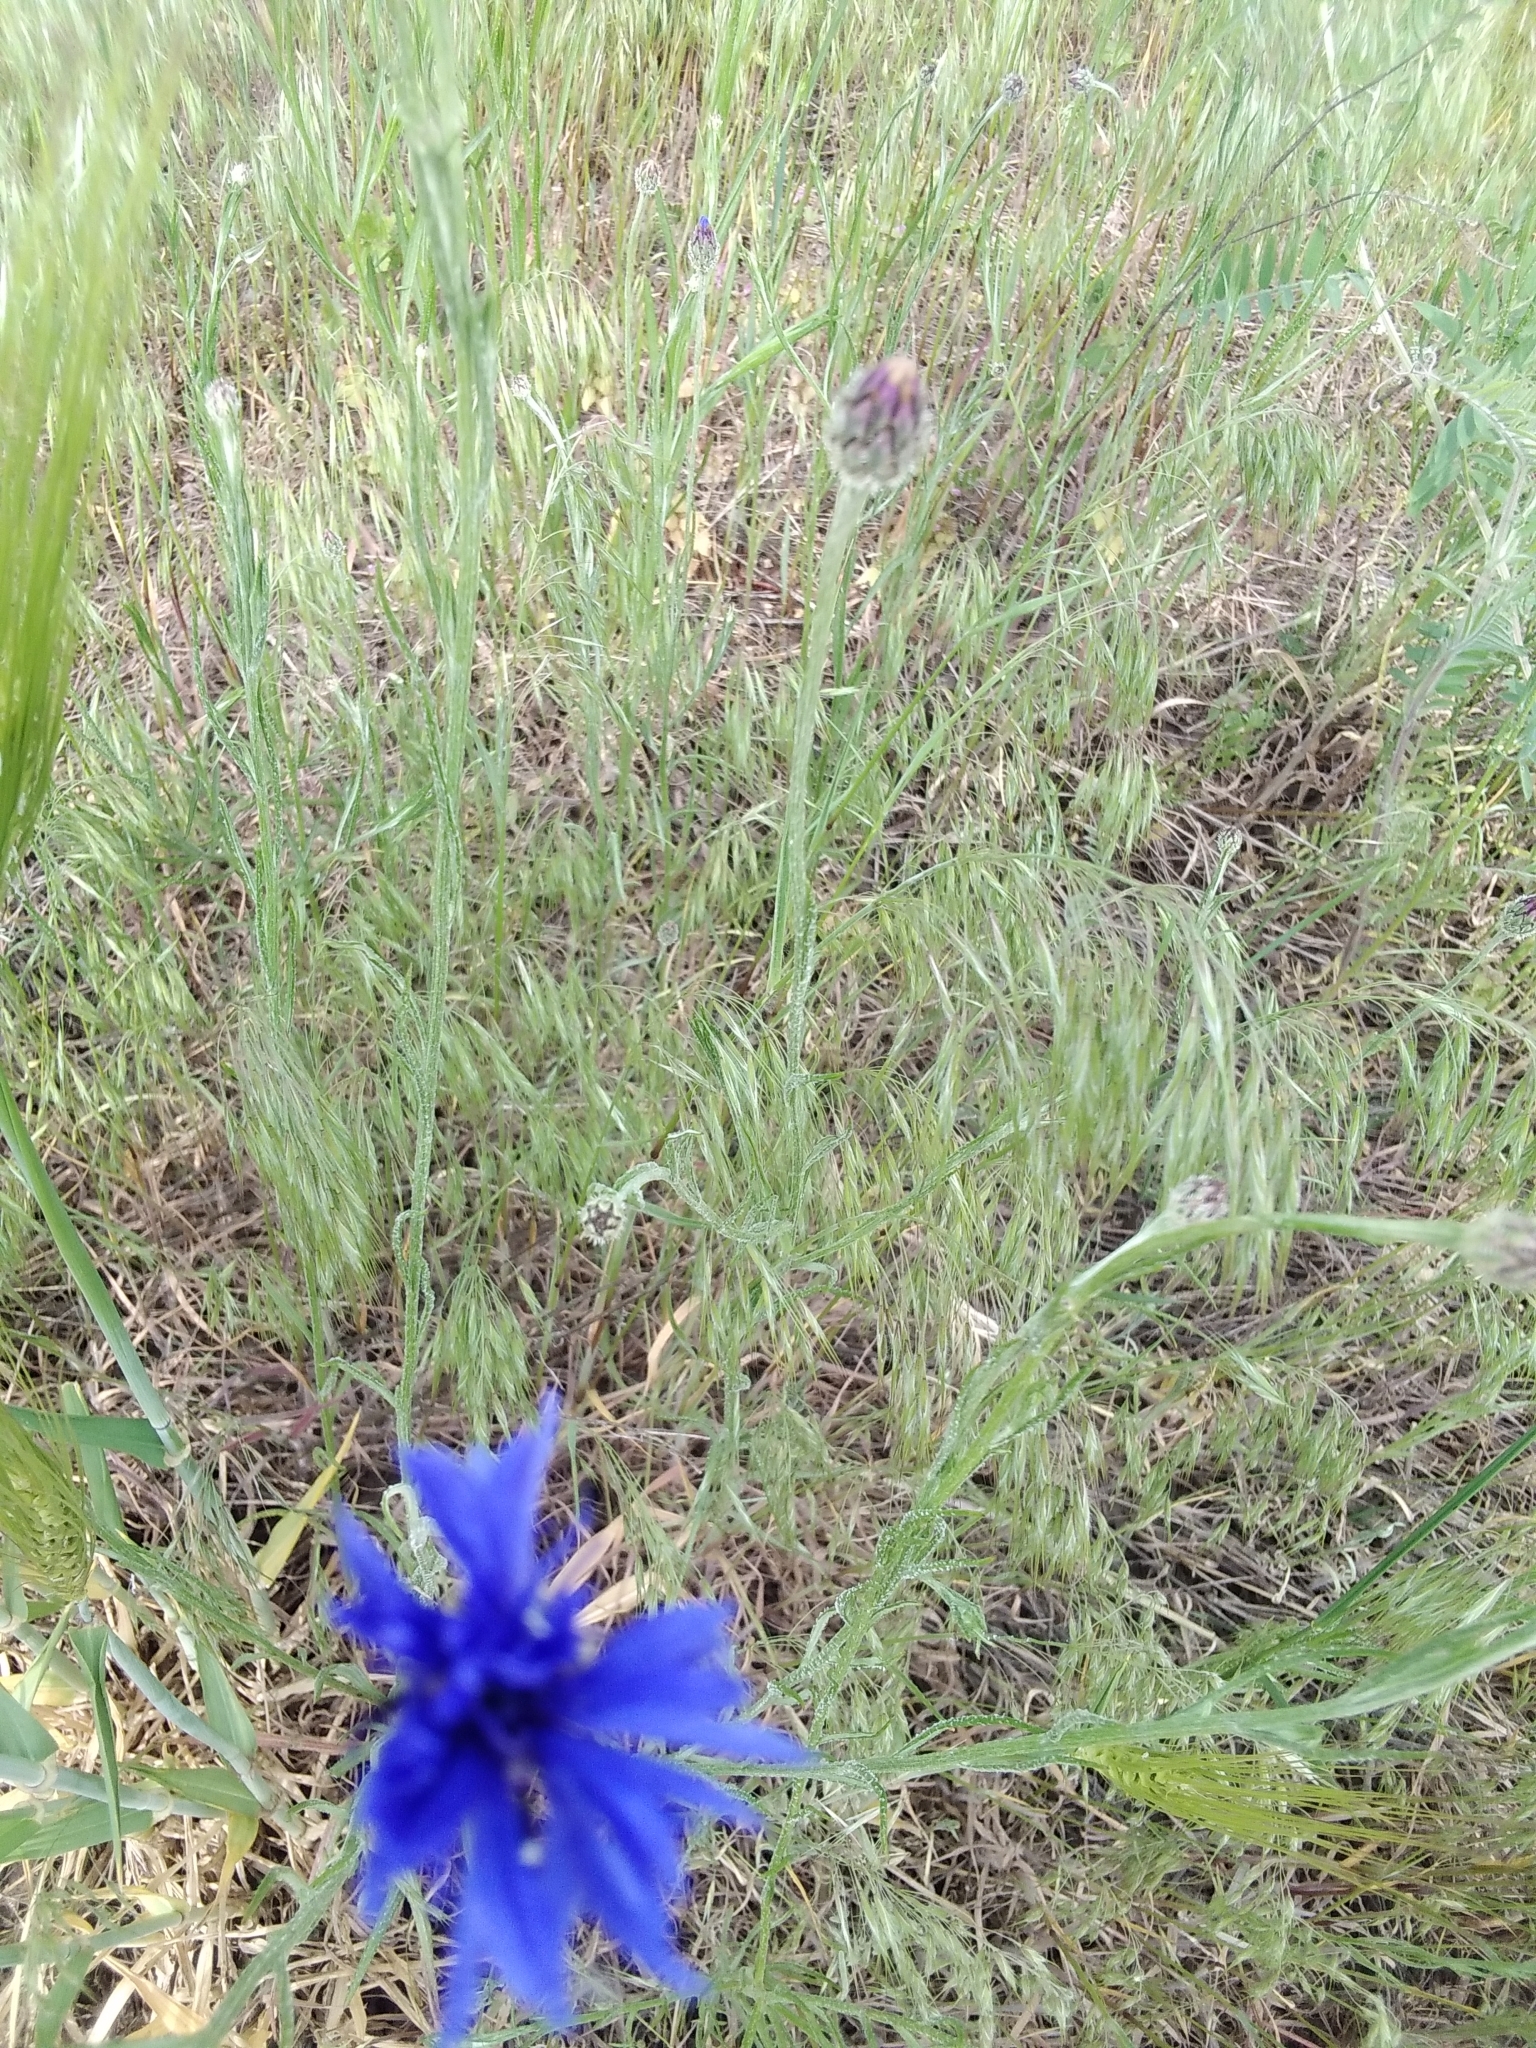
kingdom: Plantae
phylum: Tracheophyta
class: Magnoliopsida
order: Asterales
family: Asteraceae
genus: Centaurea
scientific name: Centaurea cyanus
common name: Cornflower
